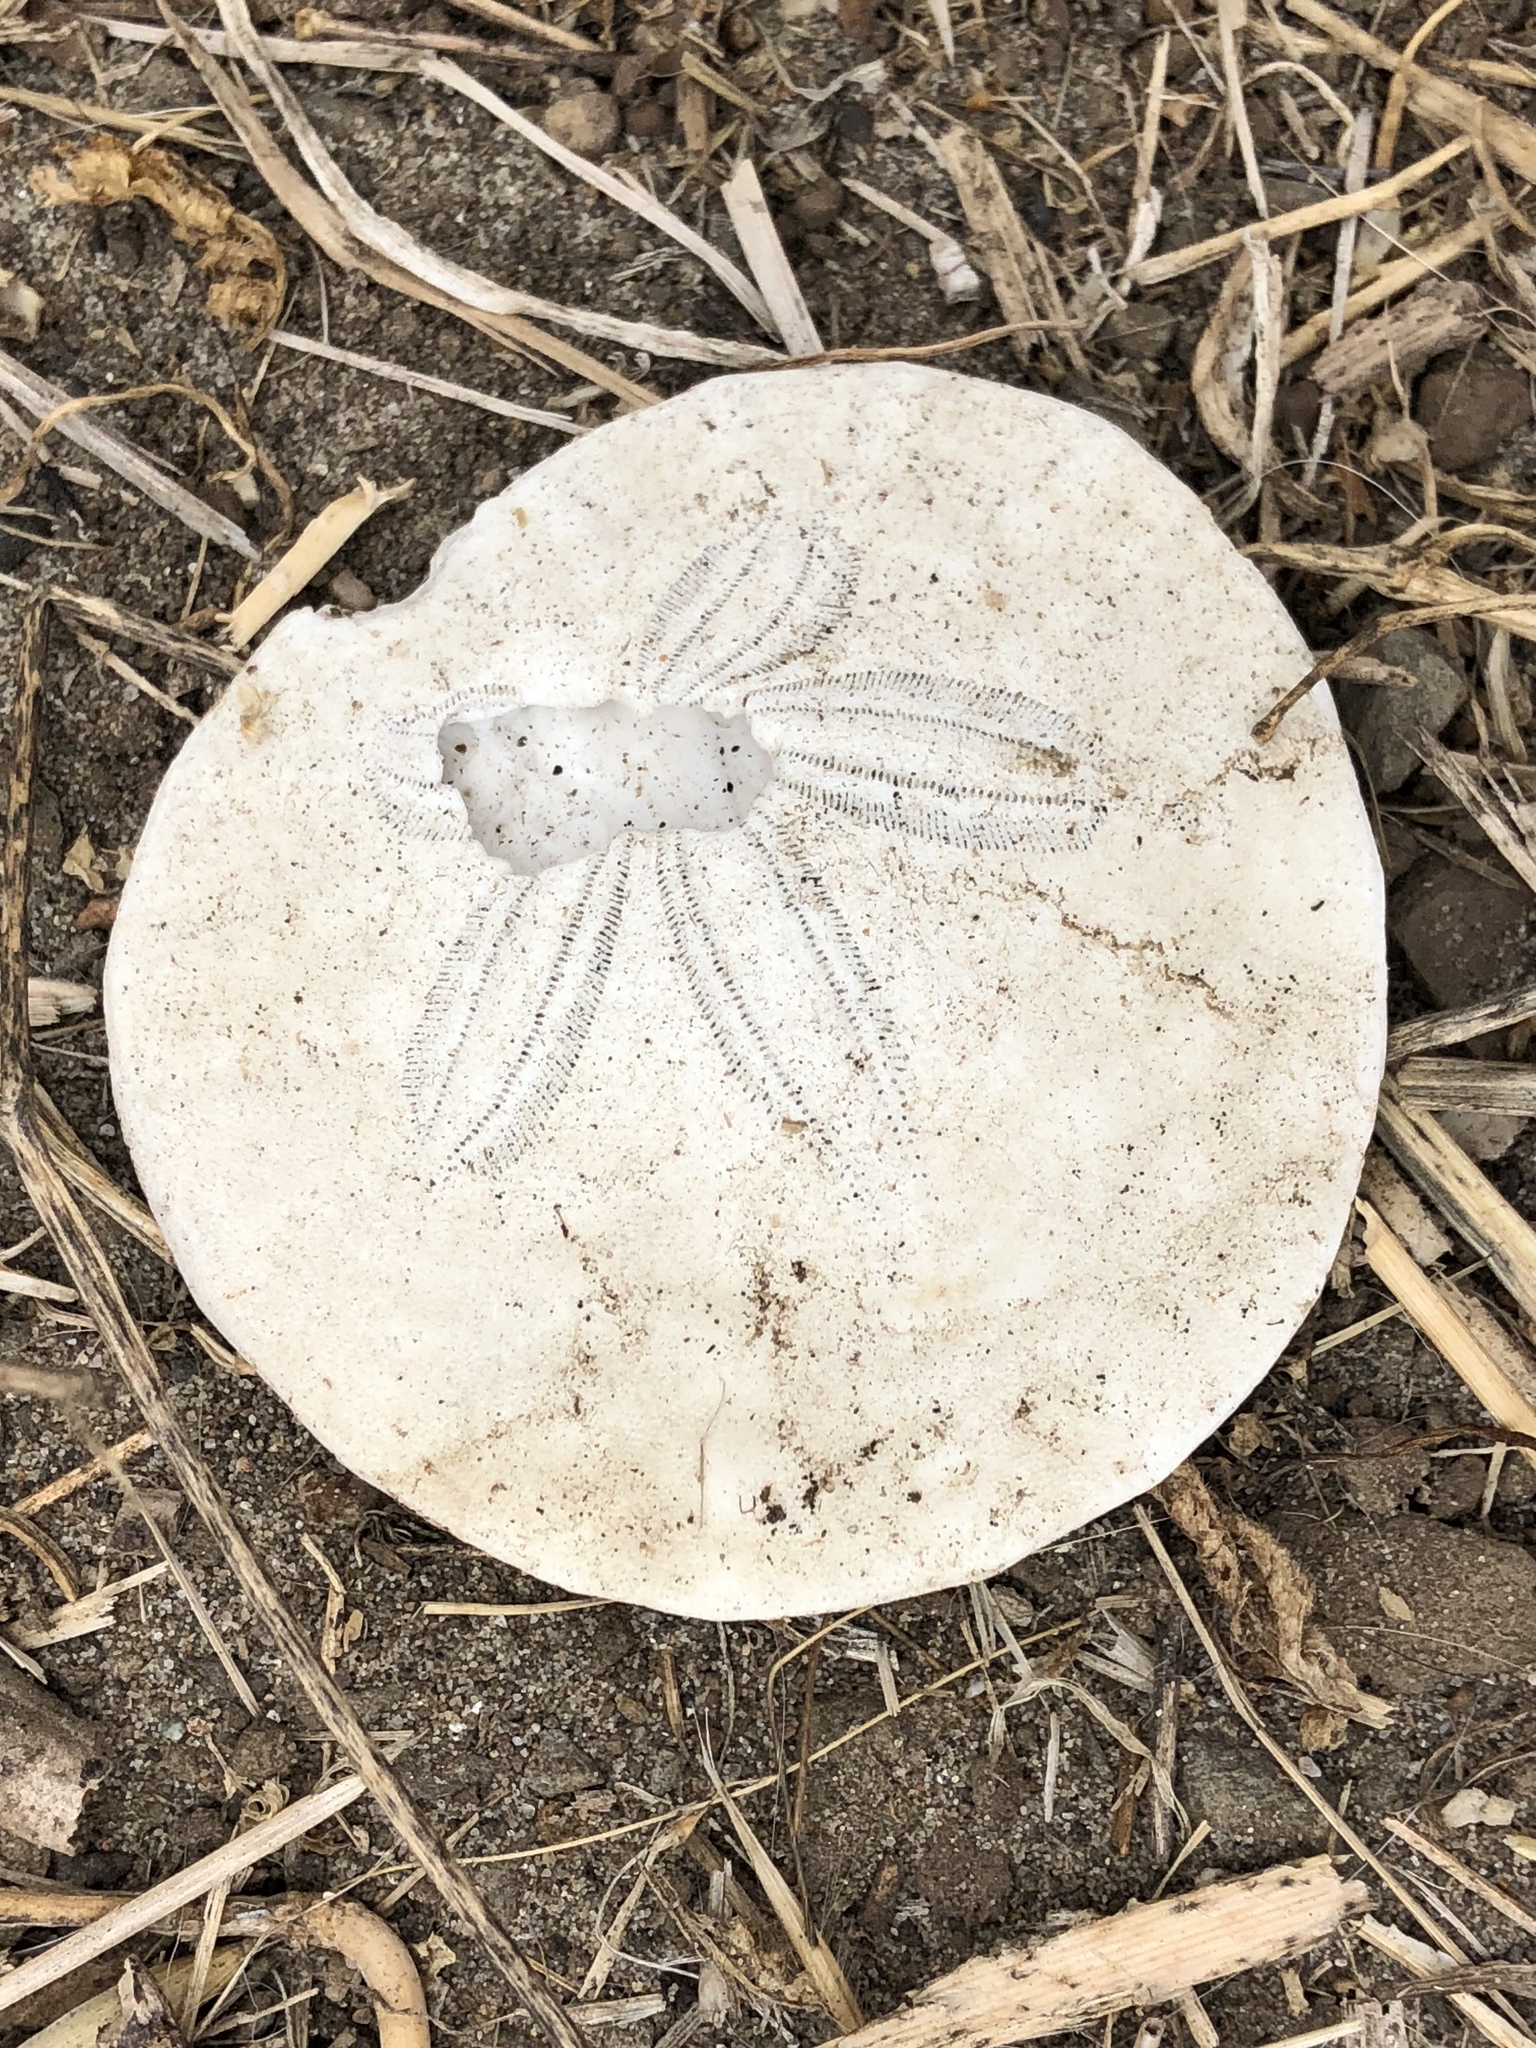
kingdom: Animalia
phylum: Echinodermata
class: Echinoidea
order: Echinolampadacea
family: Dendrasteridae
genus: Dendraster
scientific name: Dendraster excentricus
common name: Eccentric sand dollar sea urchin
